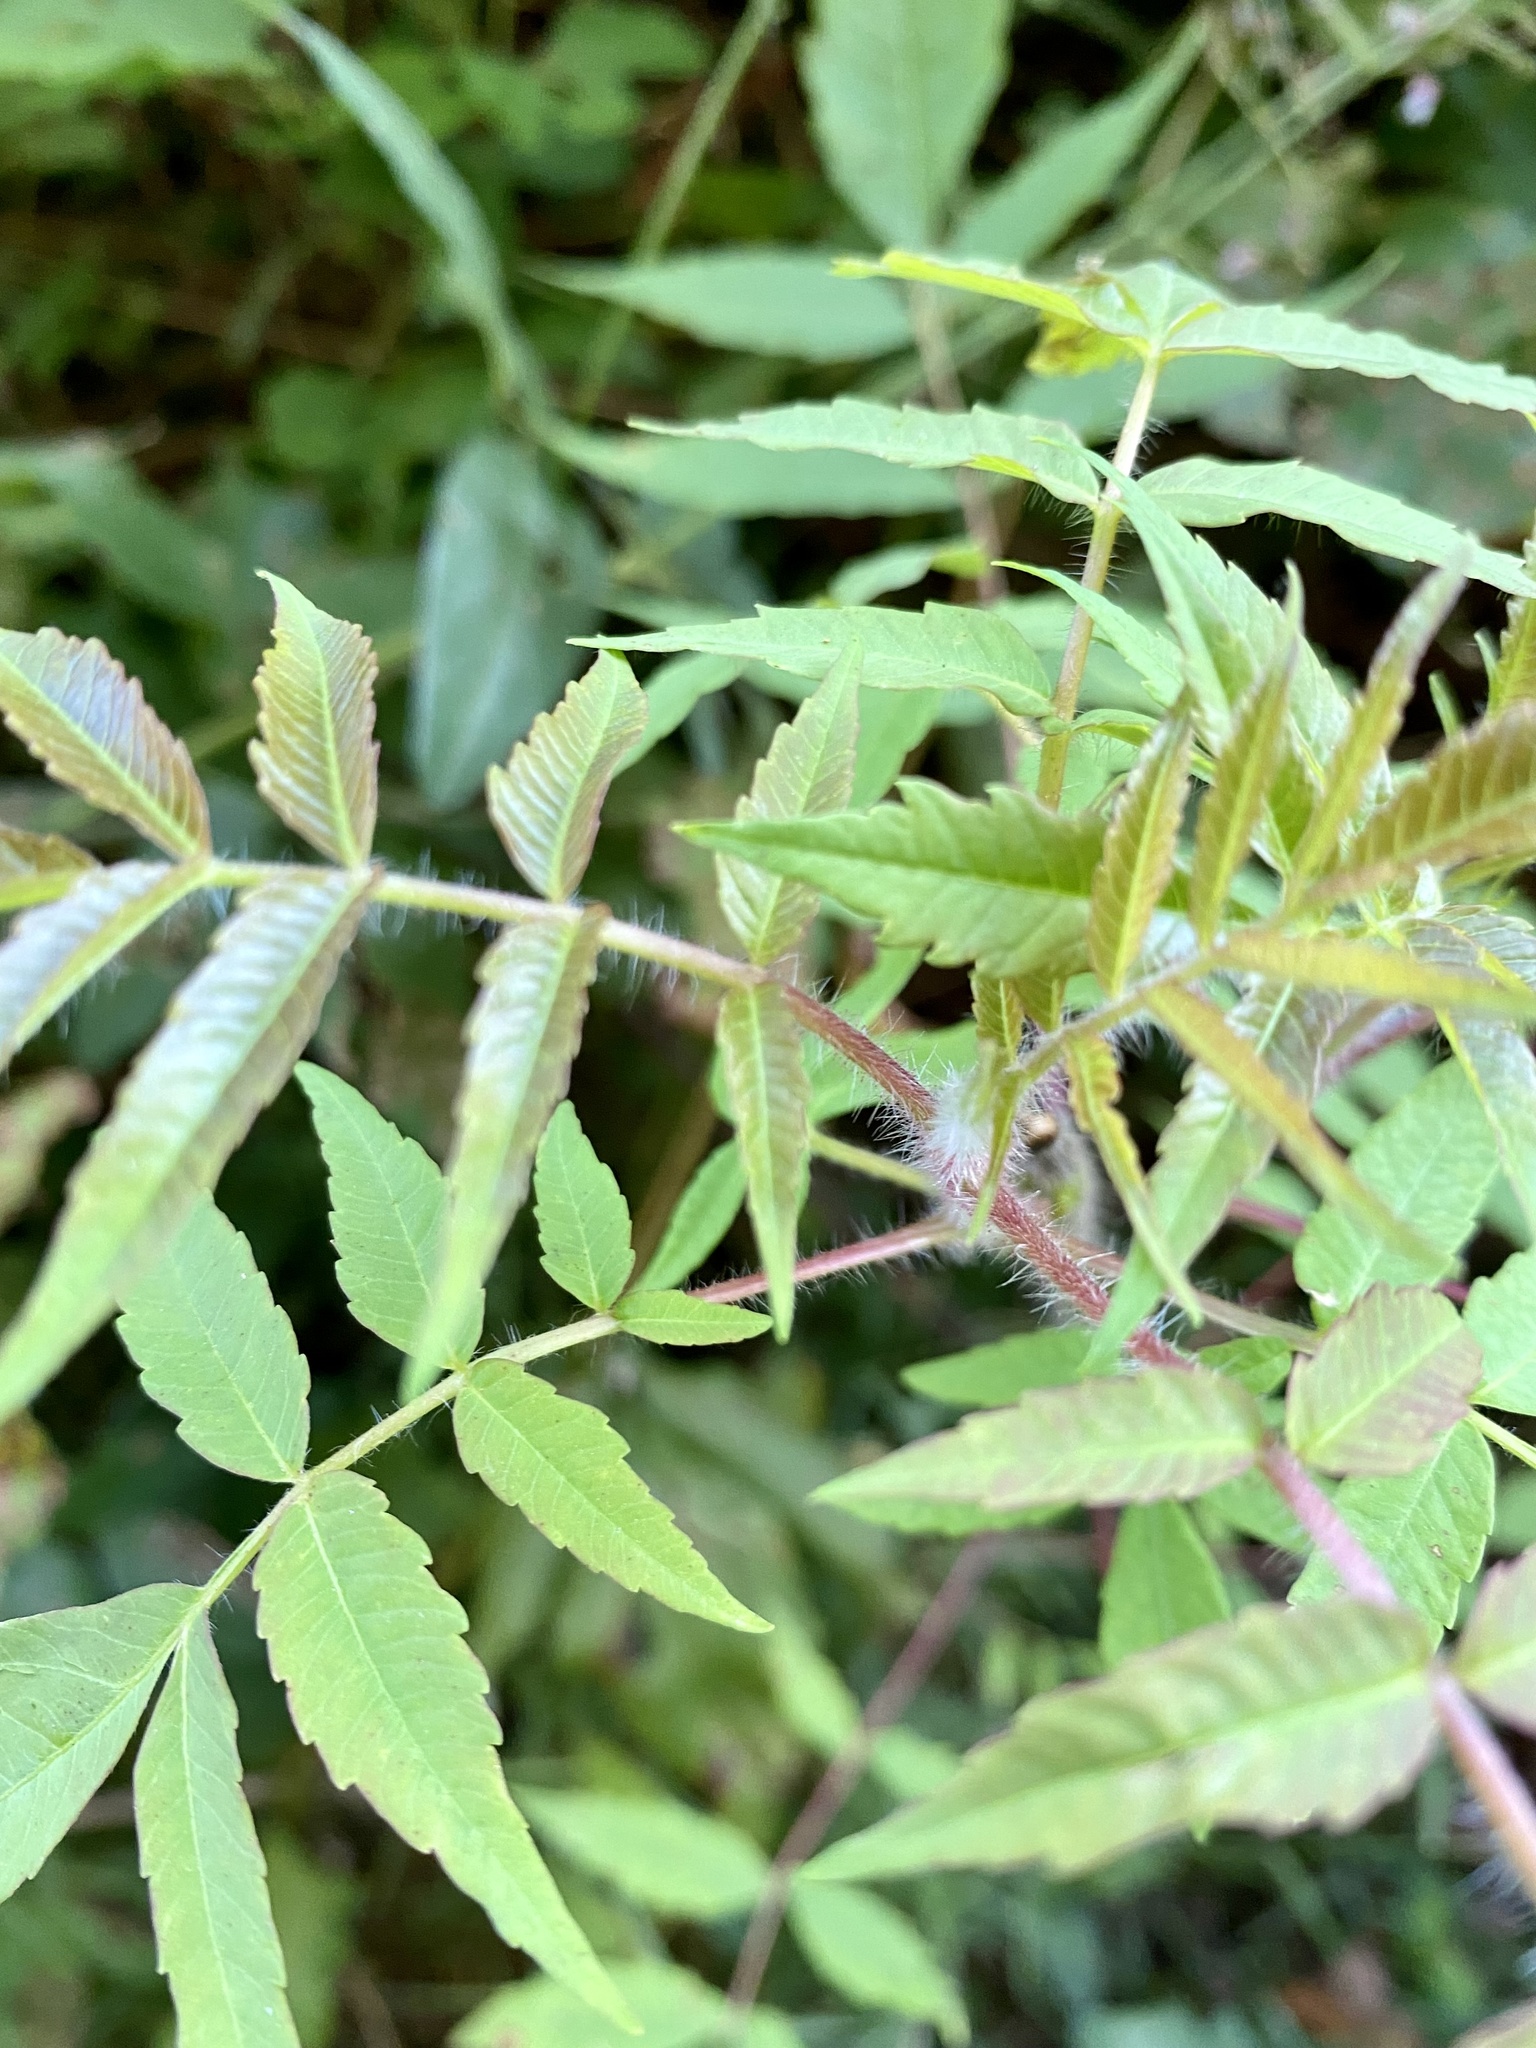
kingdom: Plantae
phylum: Tracheophyta
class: Magnoliopsida
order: Sapindales
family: Anacardiaceae
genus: Rhus
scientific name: Rhus typhina
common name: Staghorn sumac
